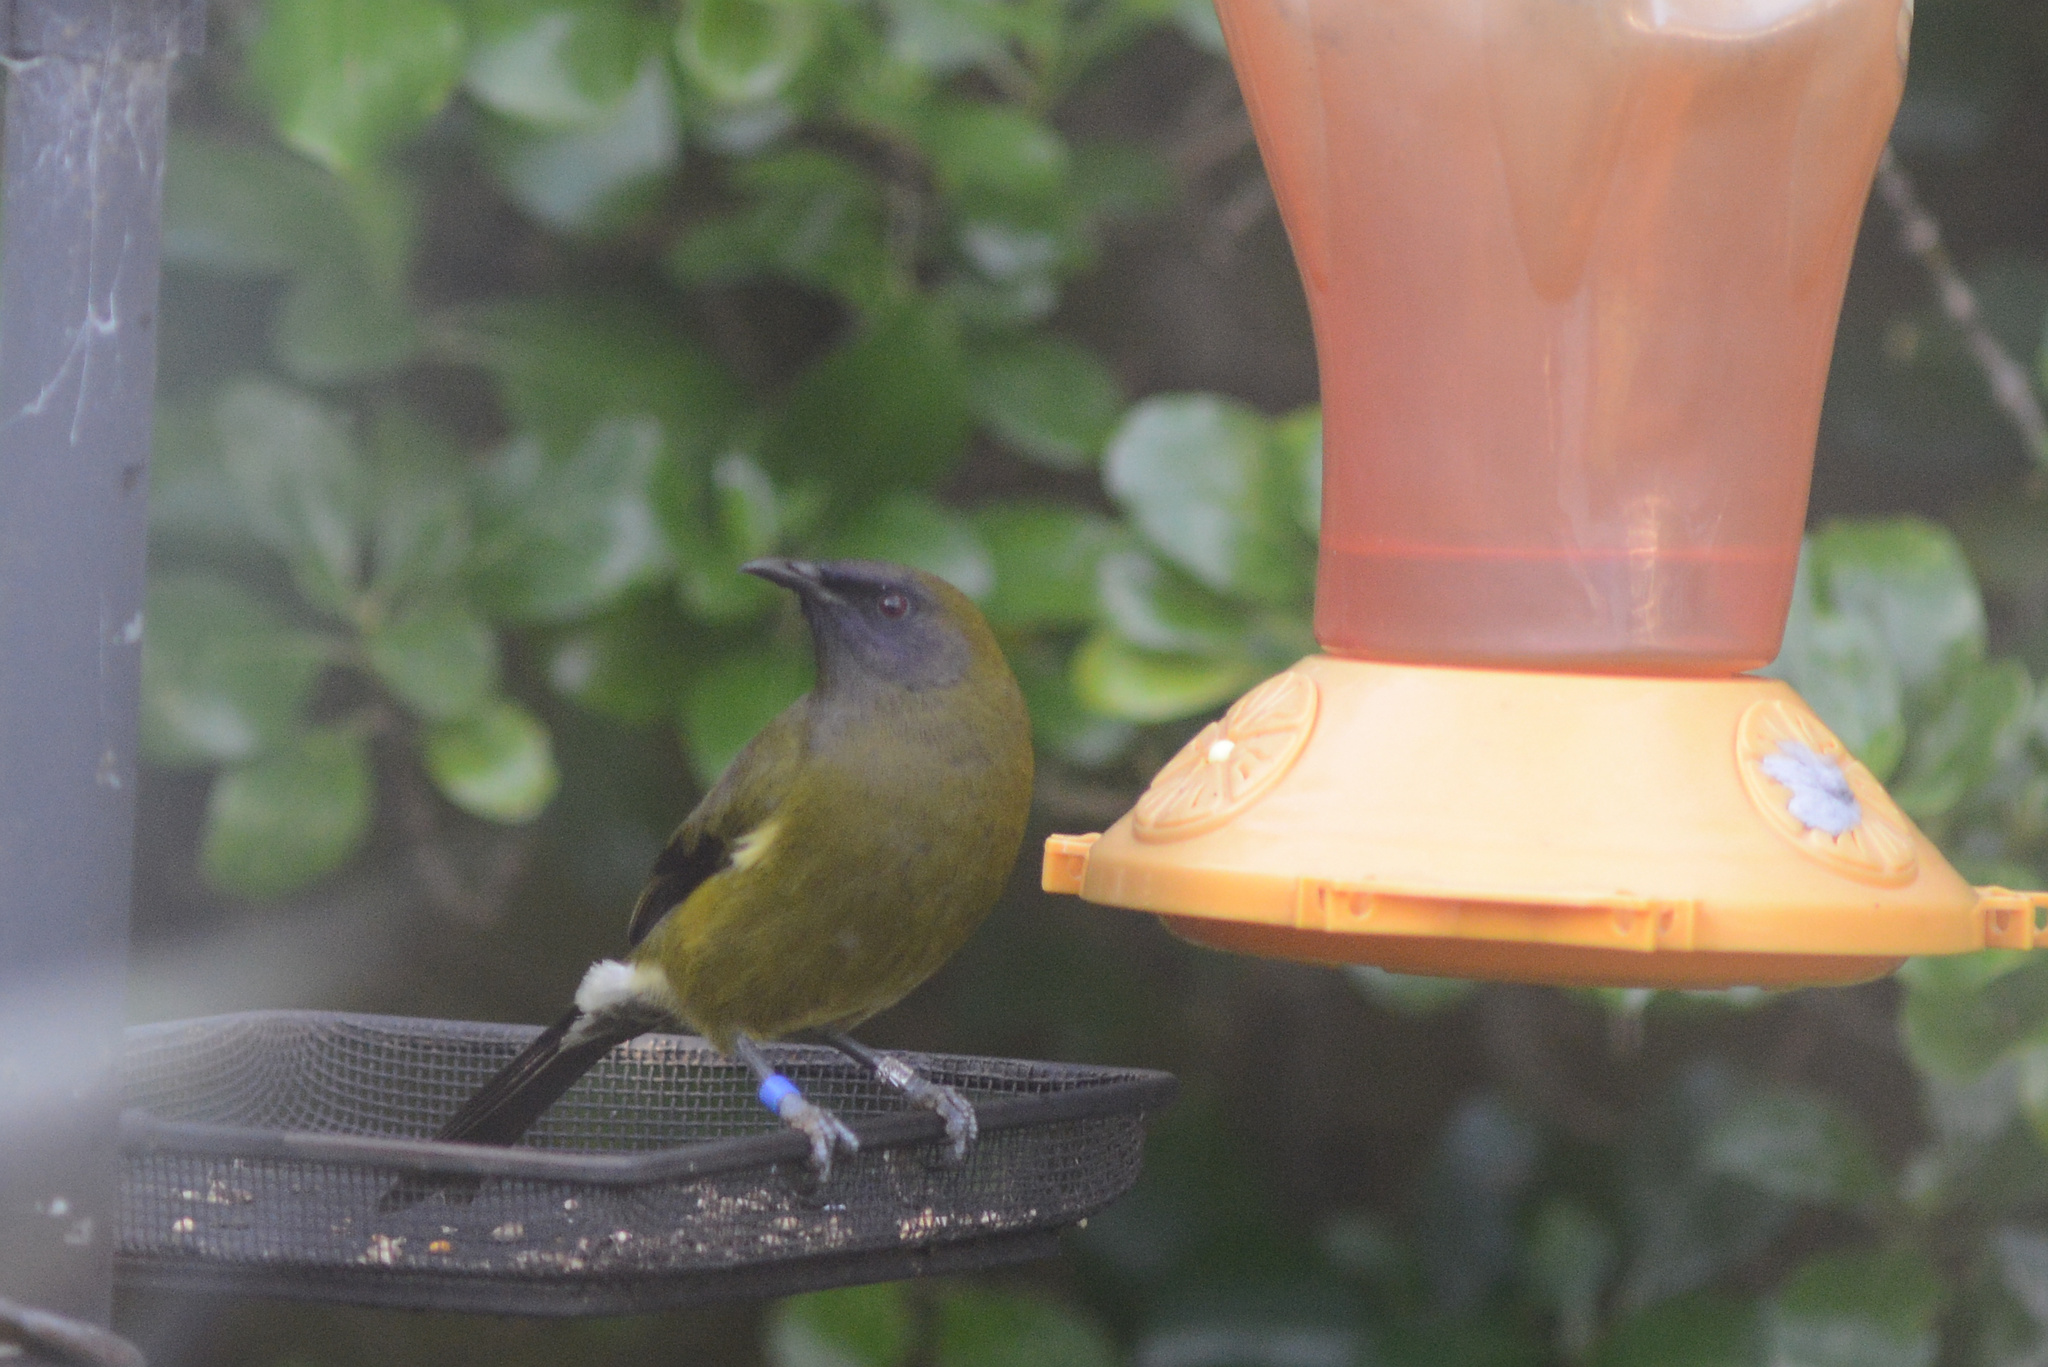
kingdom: Animalia
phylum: Chordata
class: Aves
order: Passeriformes
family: Meliphagidae
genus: Anthornis
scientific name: Anthornis melanura
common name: New zealand bellbird
